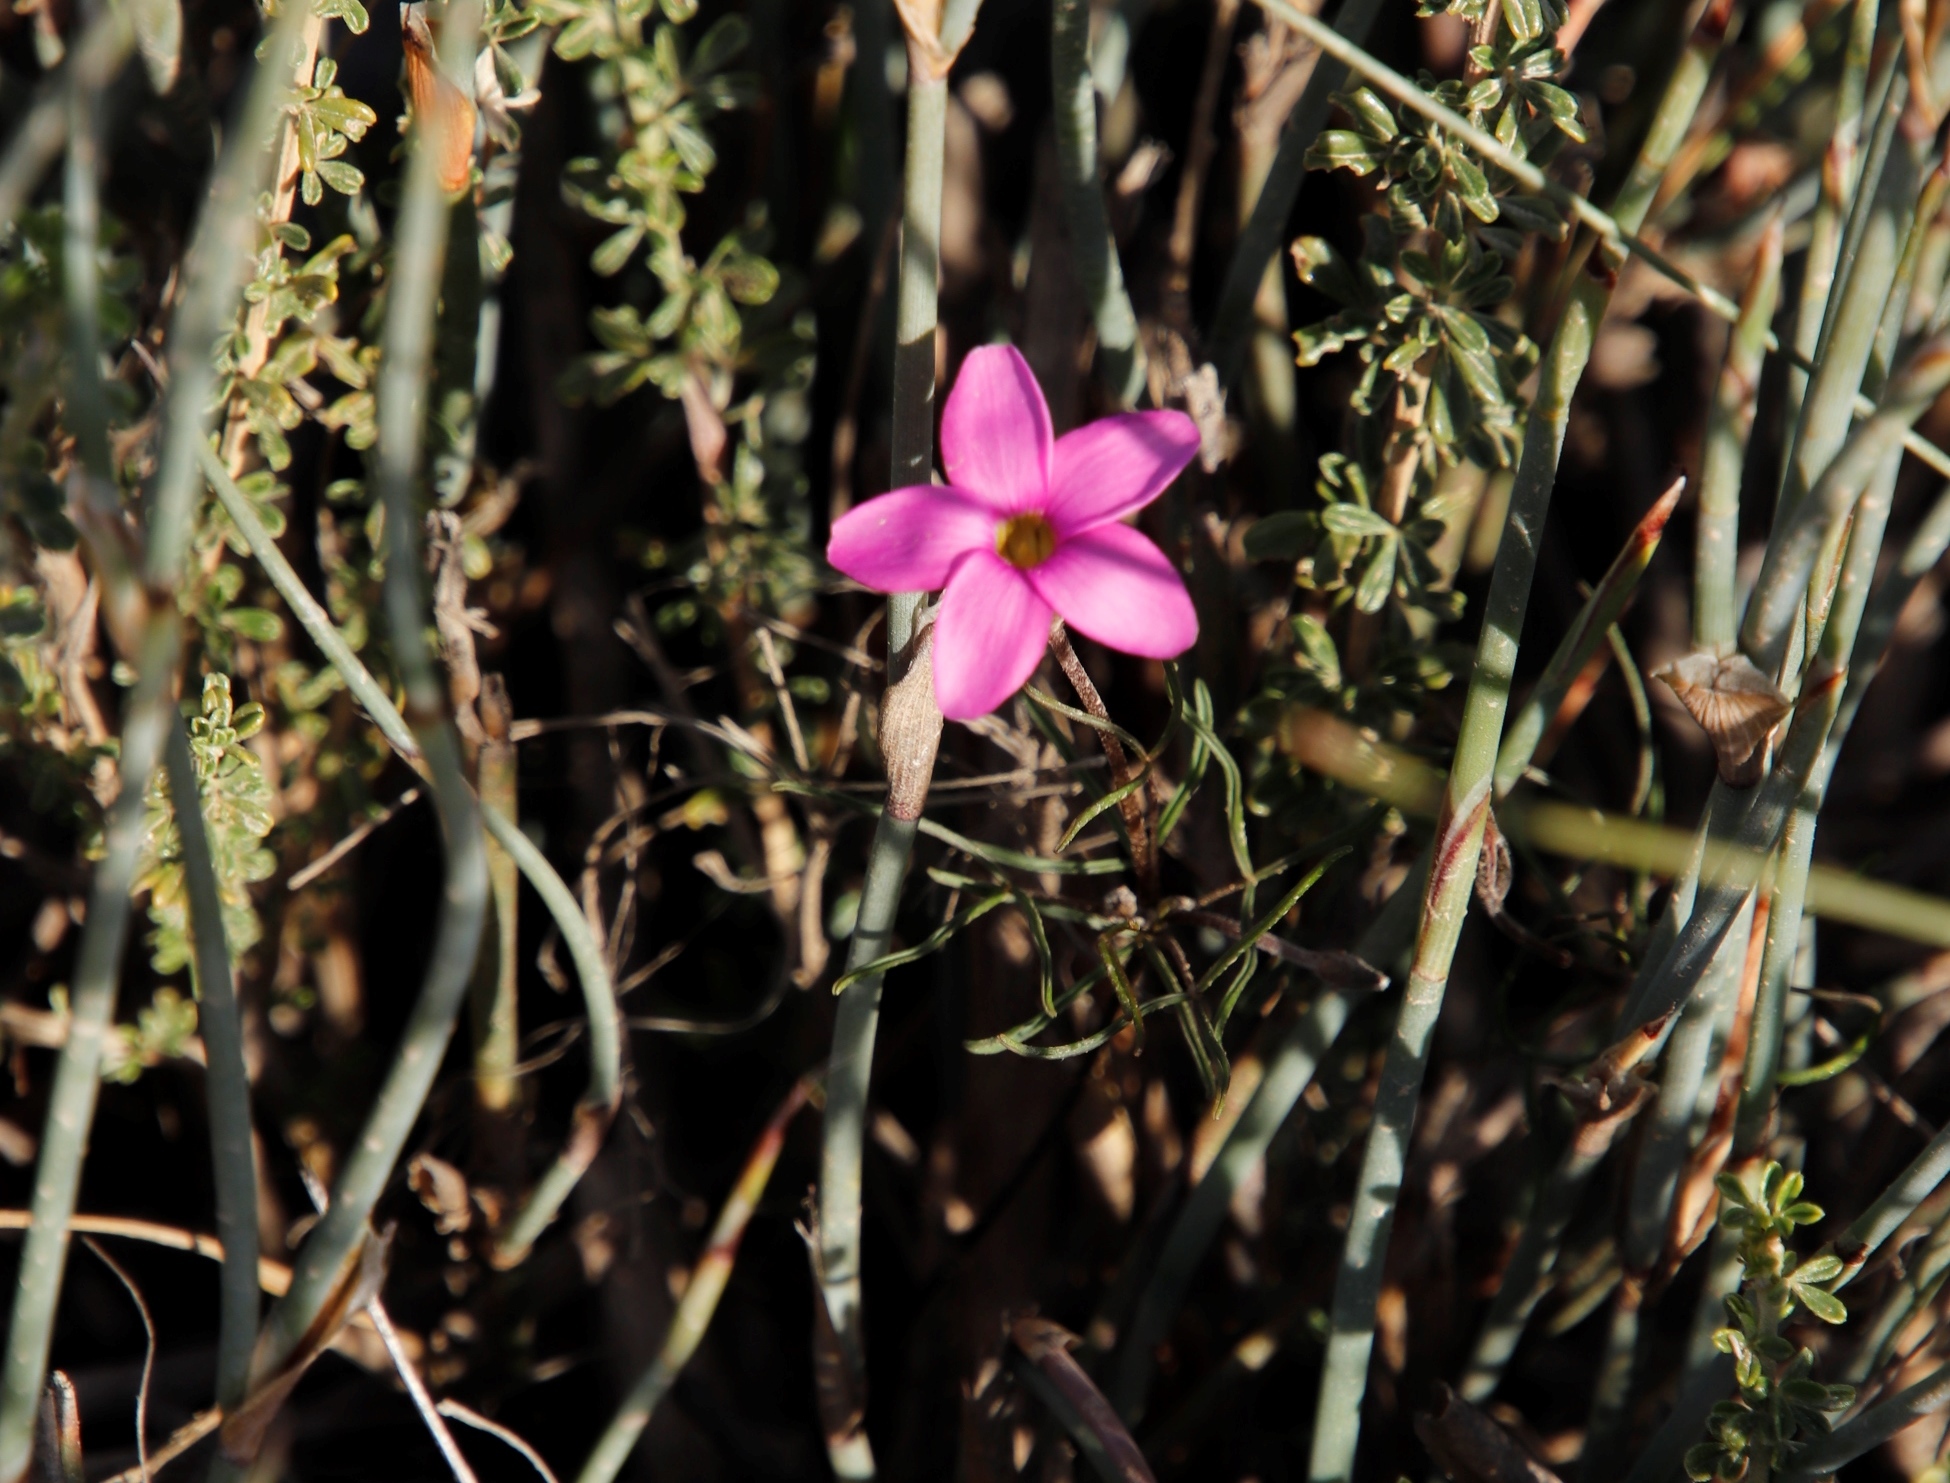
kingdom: Plantae
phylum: Tracheophyta
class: Magnoliopsida
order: Oxalidales
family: Oxalidaceae
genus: Oxalis
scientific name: Oxalis polyphylla
